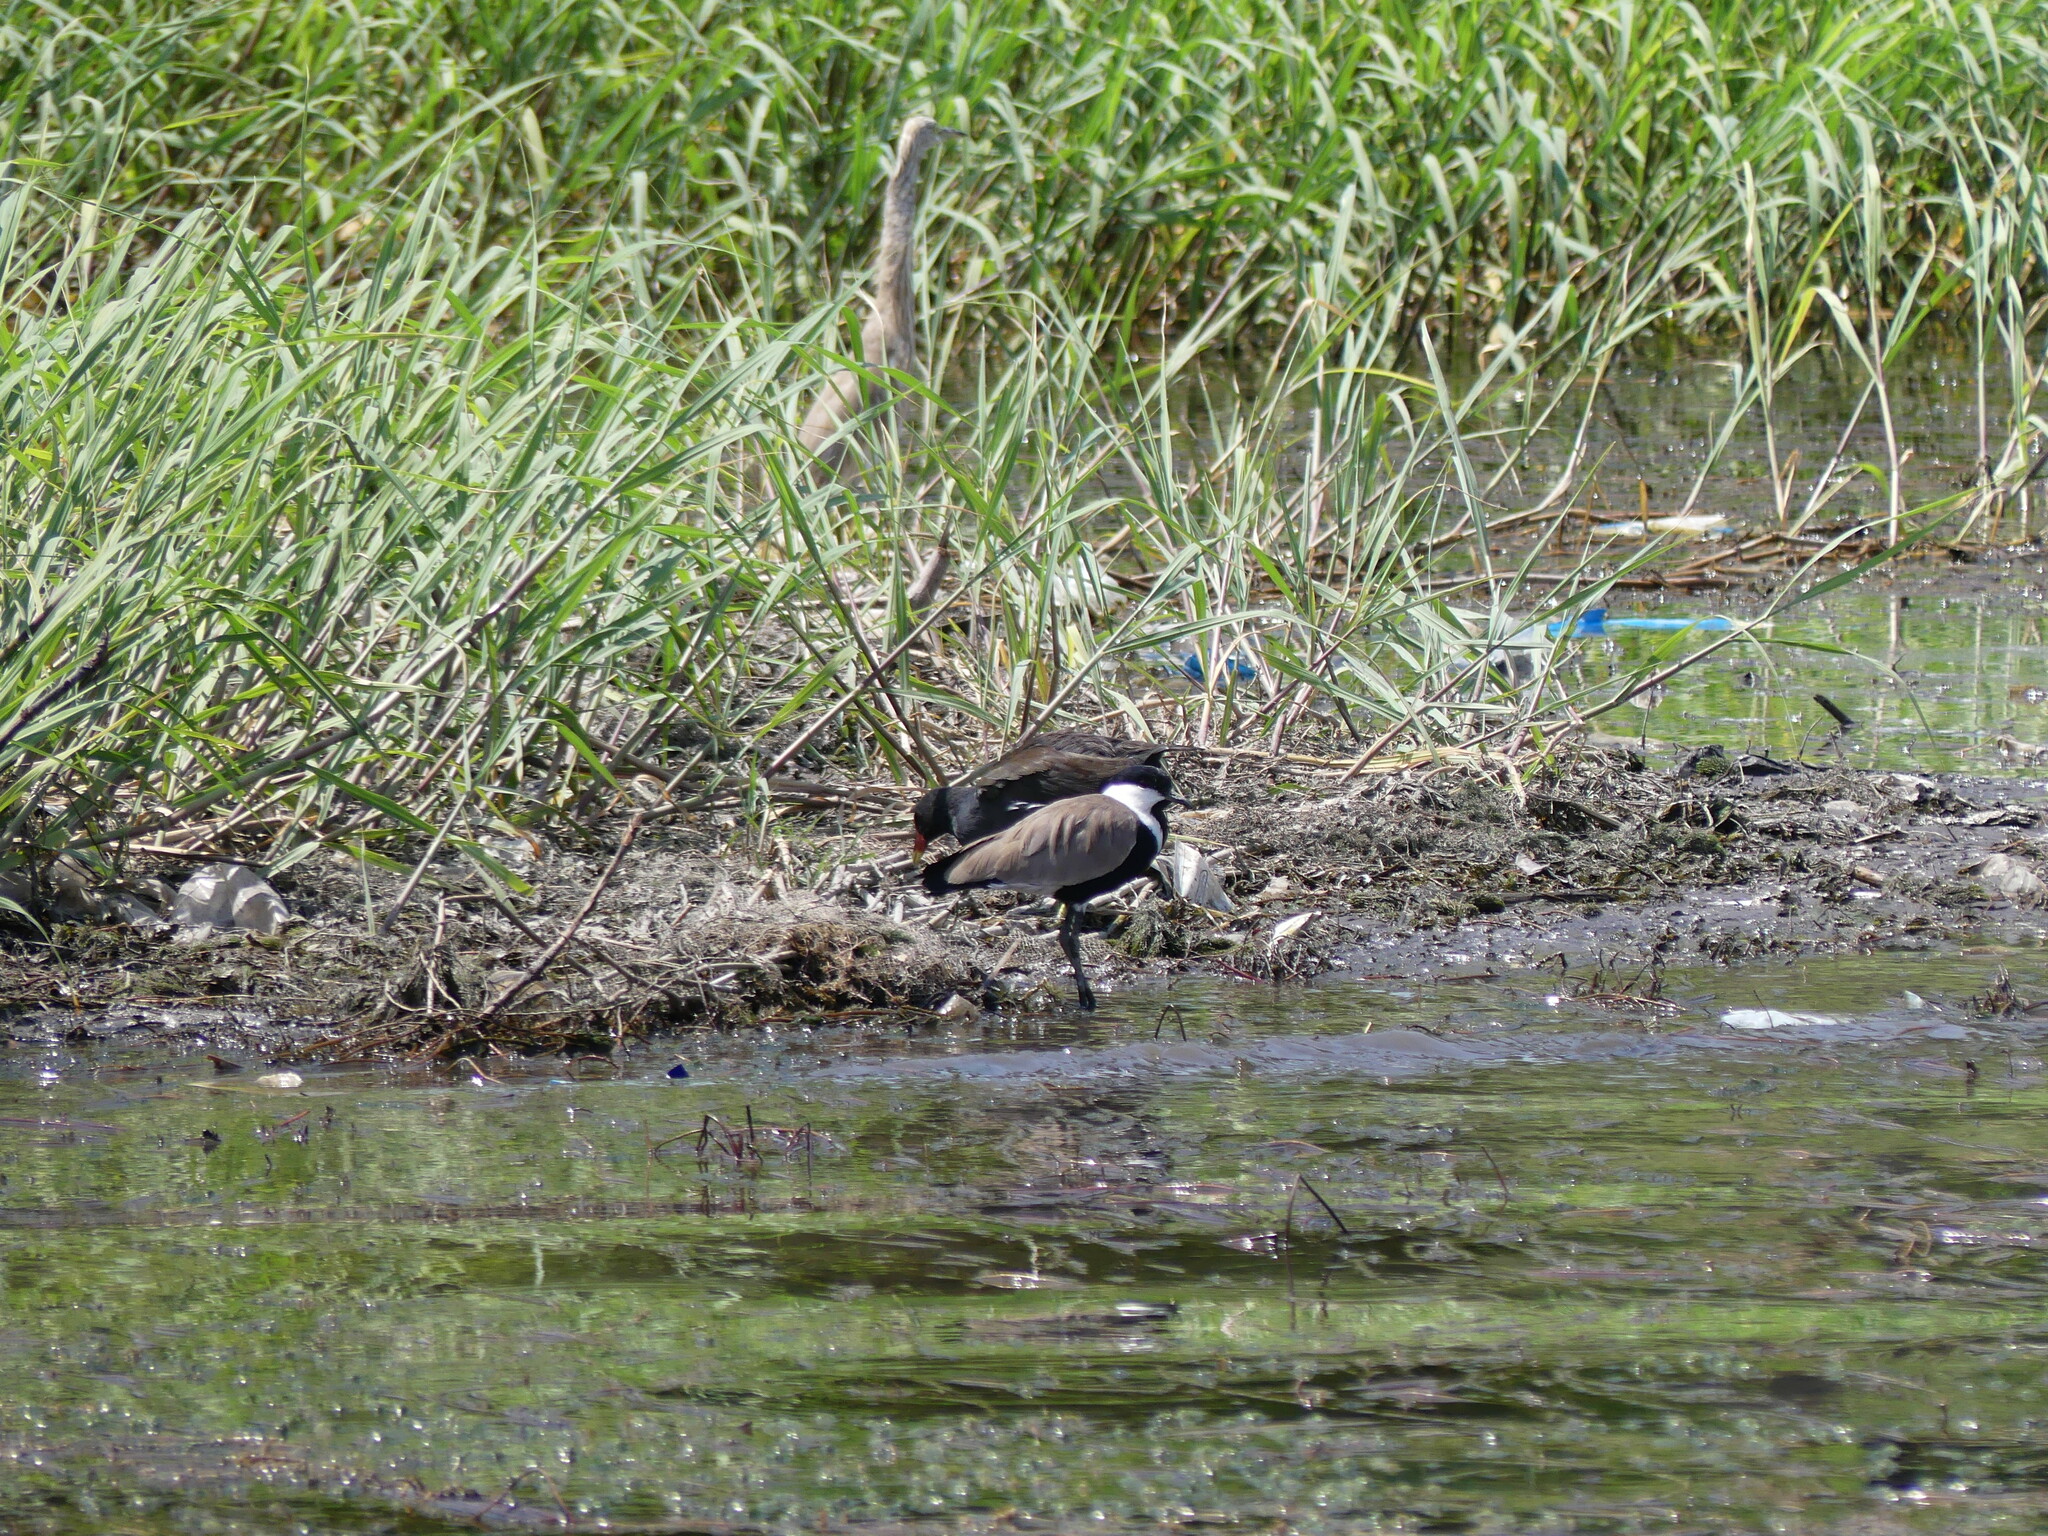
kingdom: Animalia
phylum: Chordata
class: Aves
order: Pelecaniformes
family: Ardeidae
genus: Ardeola
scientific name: Ardeola ralloides
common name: Squacco heron
